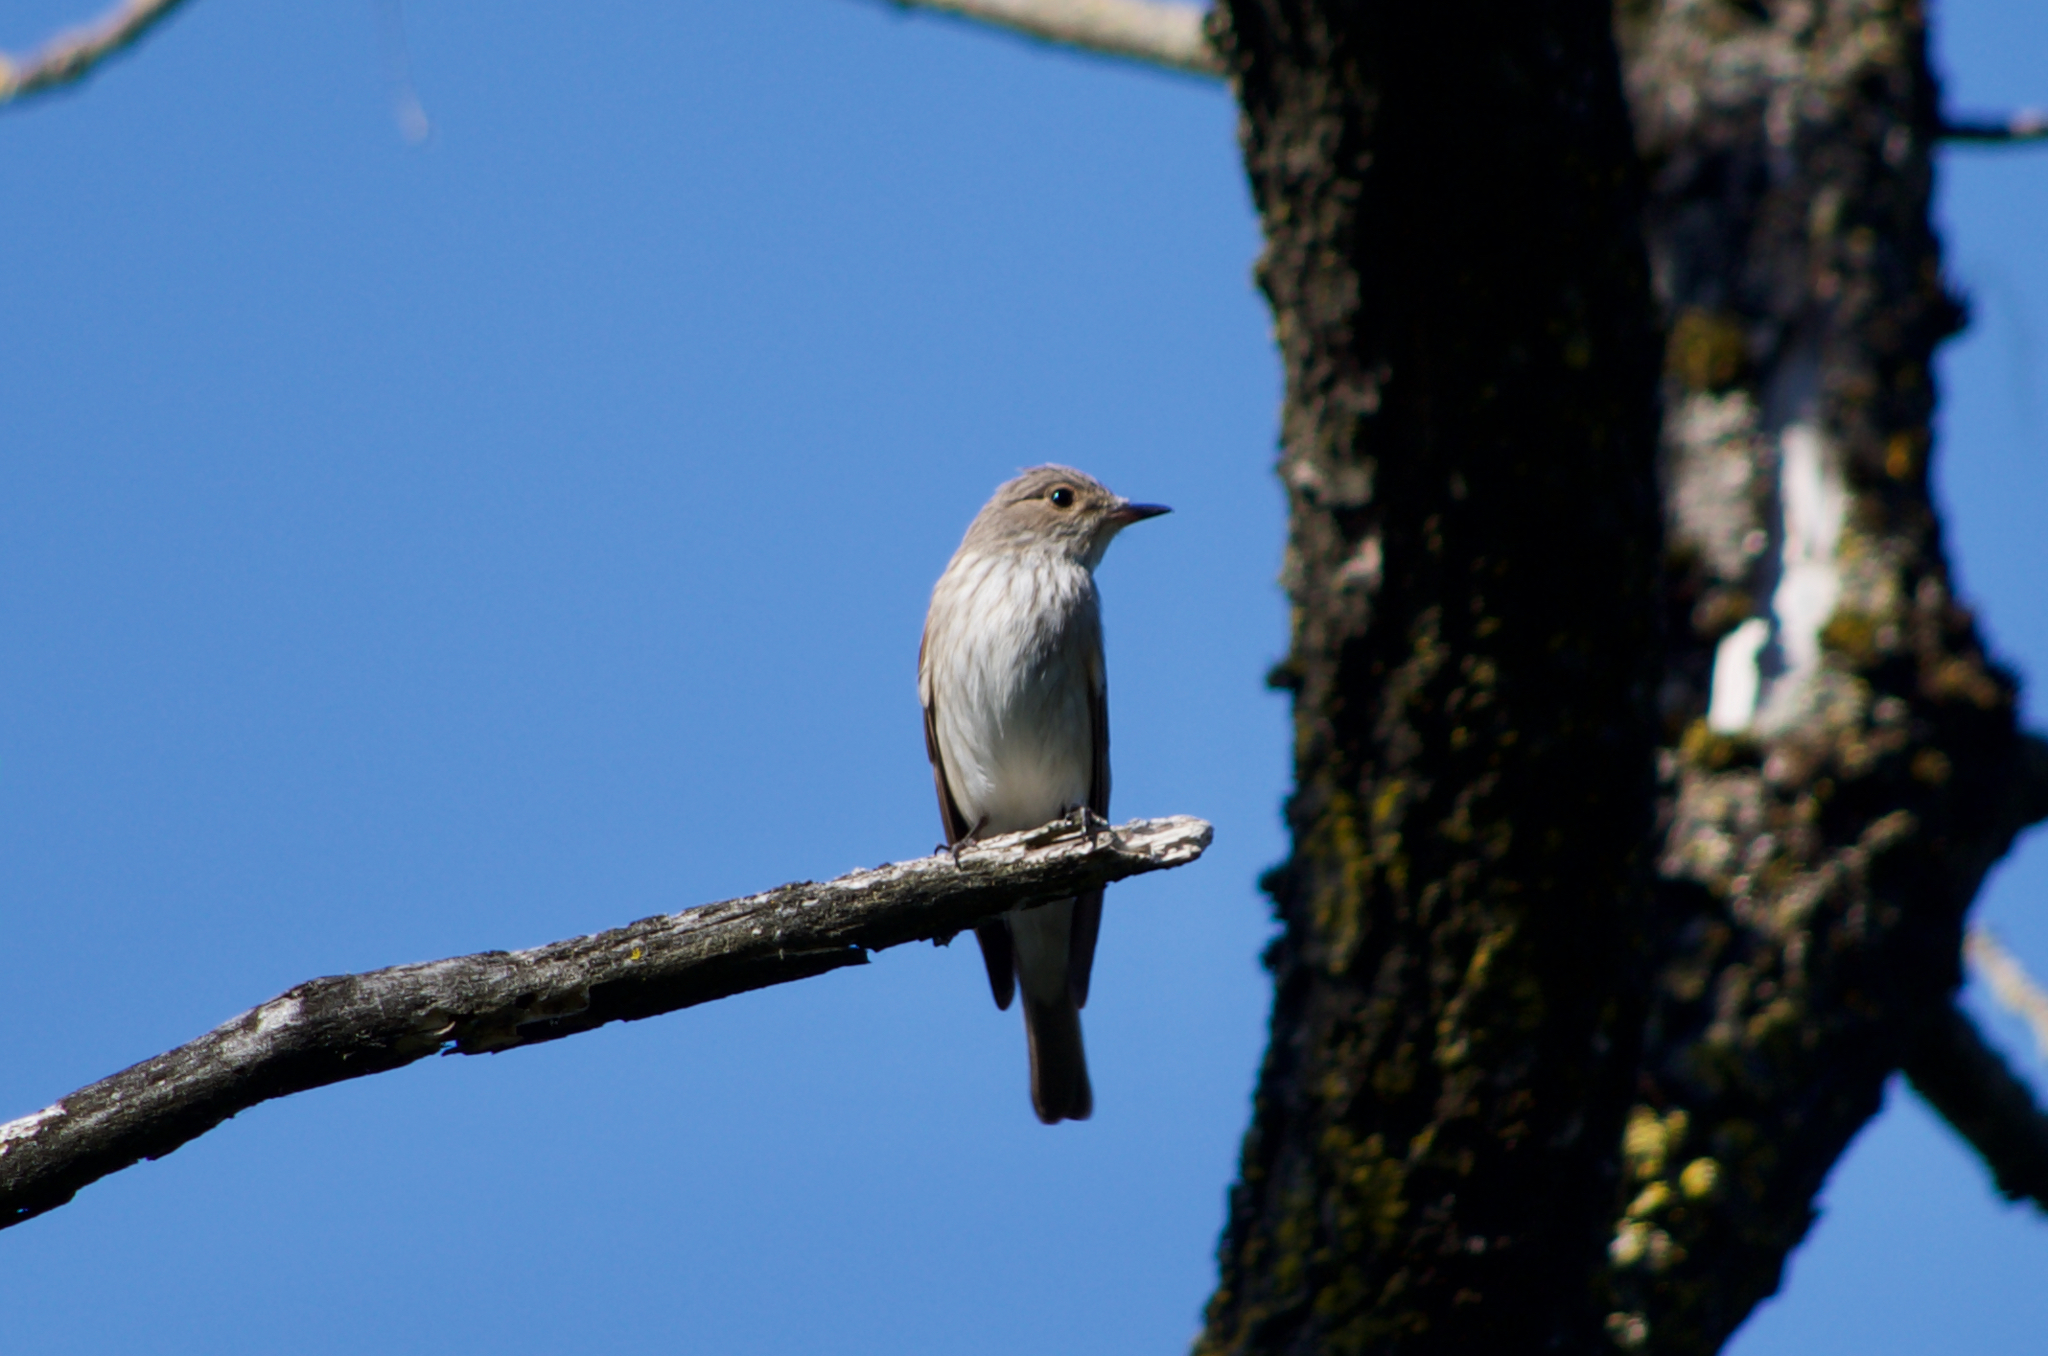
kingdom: Animalia
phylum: Chordata
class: Aves
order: Passeriformes
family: Muscicapidae
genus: Muscicapa
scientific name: Muscicapa striata
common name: Spotted flycatcher
